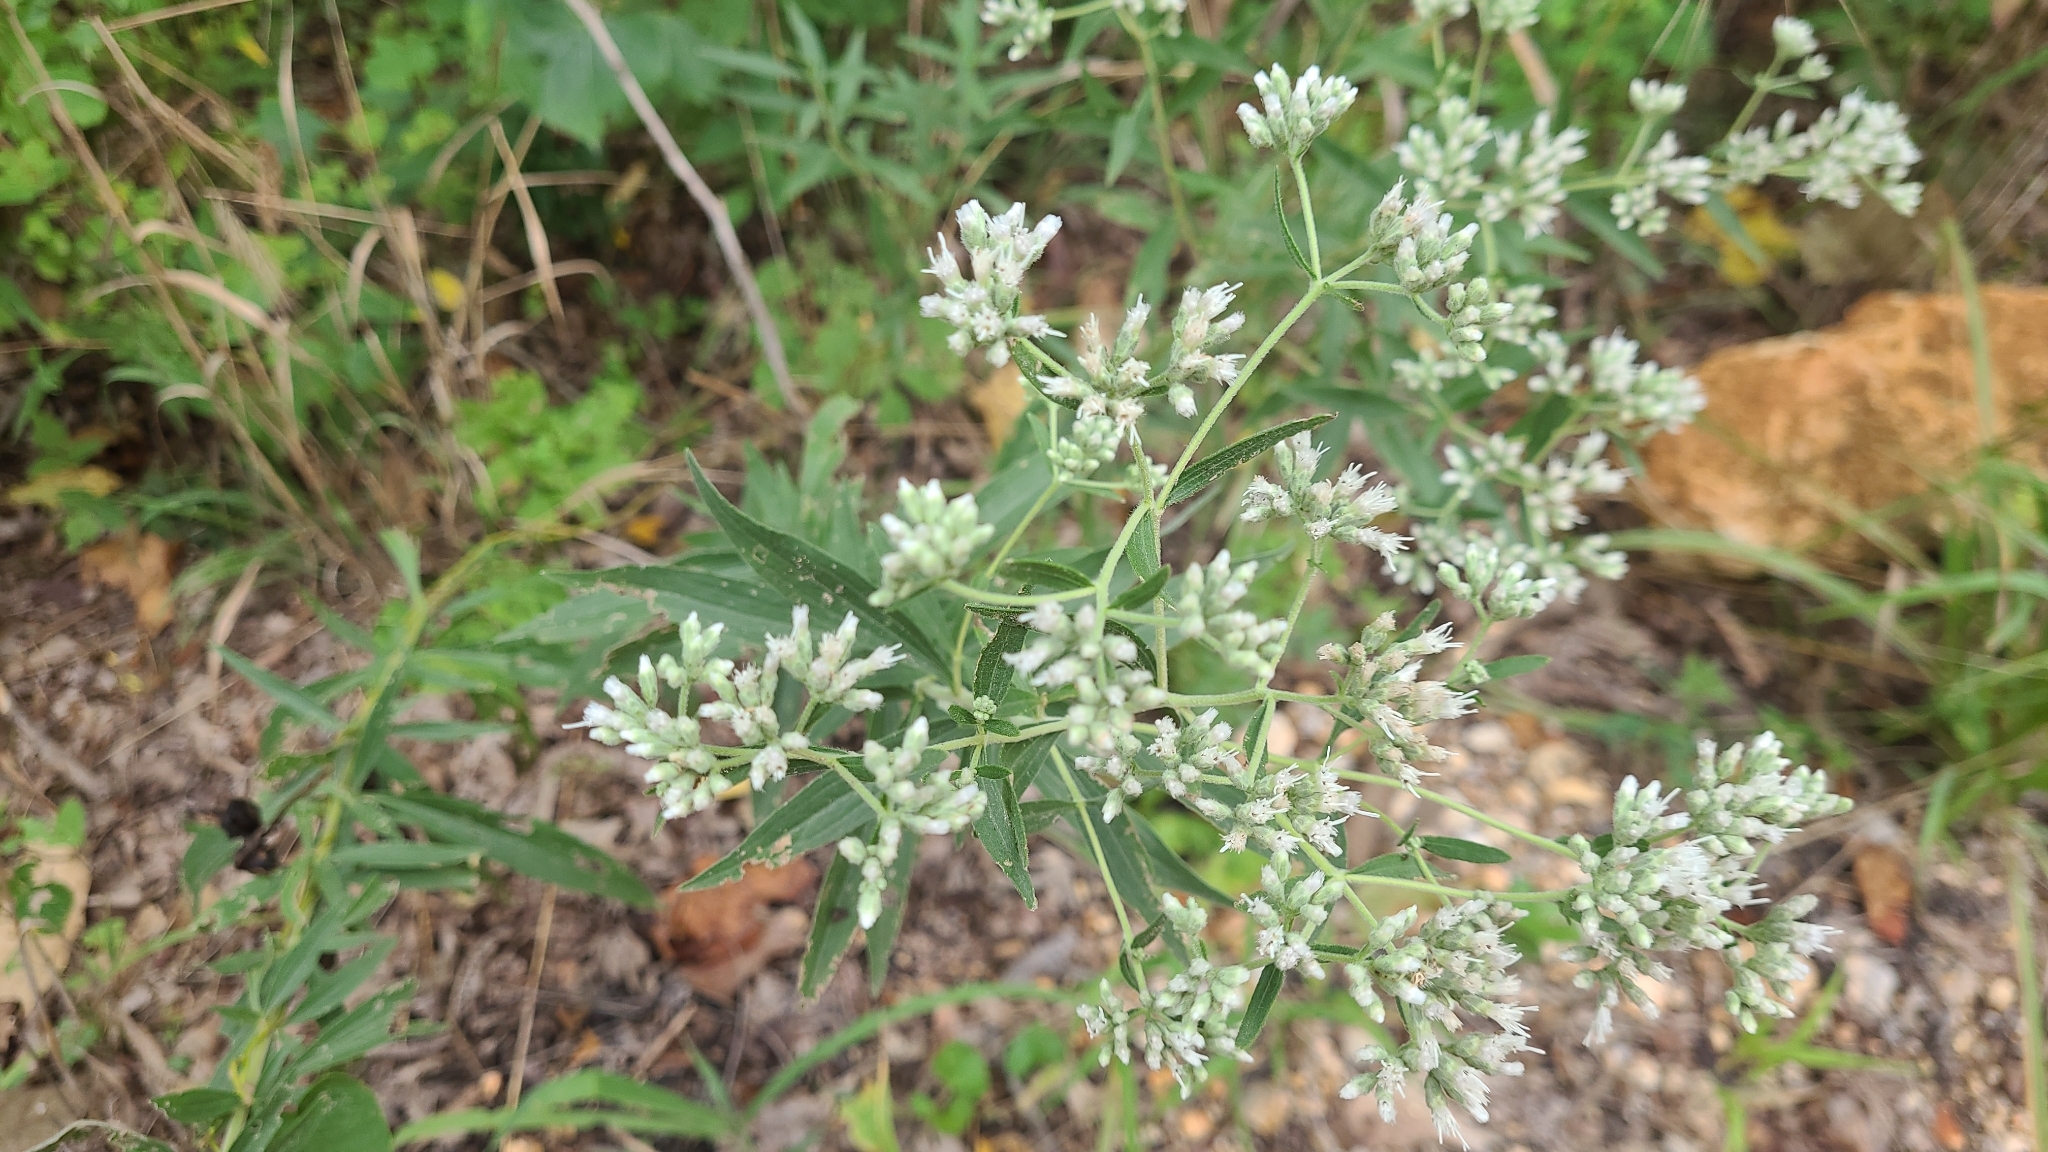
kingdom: Plantae
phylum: Tracheophyta
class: Magnoliopsida
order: Asterales
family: Asteraceae
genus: Eupatorium
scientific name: Eupatorium altissimum
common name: Tall thoroughwort
